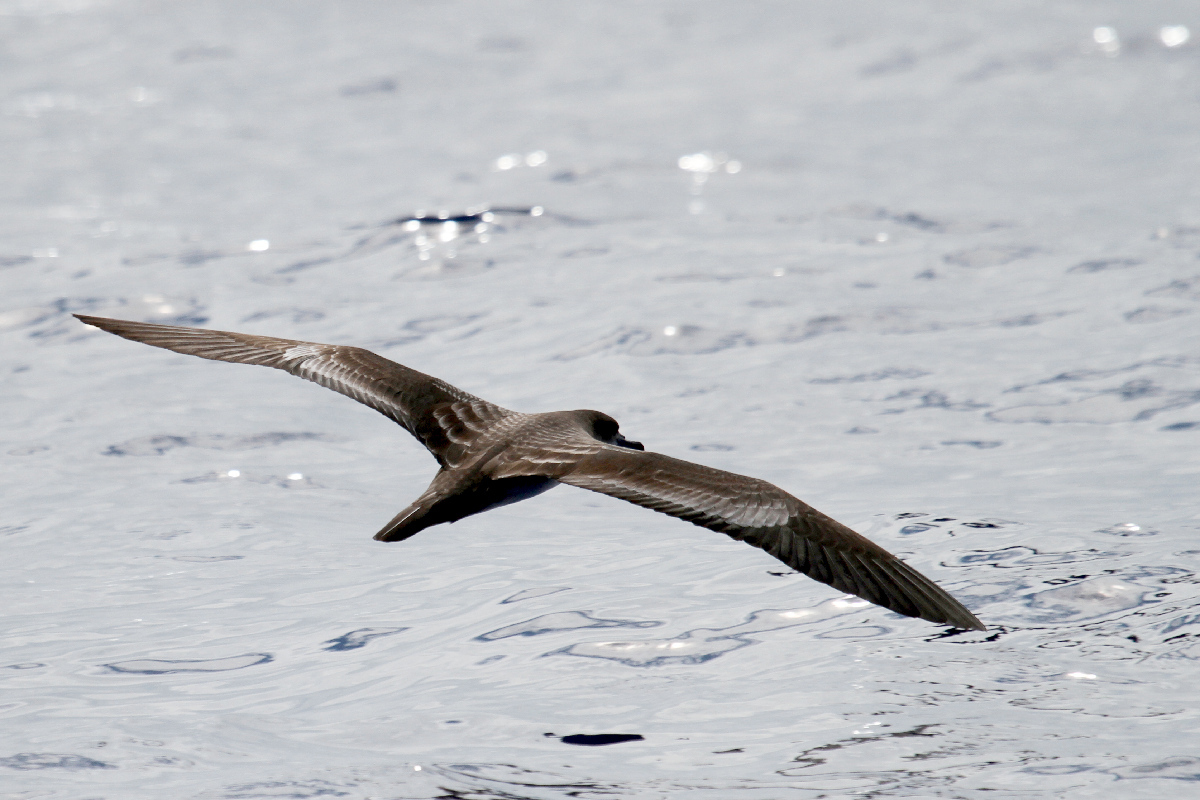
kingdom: Animalia
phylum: Chordata
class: Aves
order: Procellariiformes
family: Procellariidae
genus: Puffinus
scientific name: Puffinus pacificus
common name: Wedge-tailed shearwater
